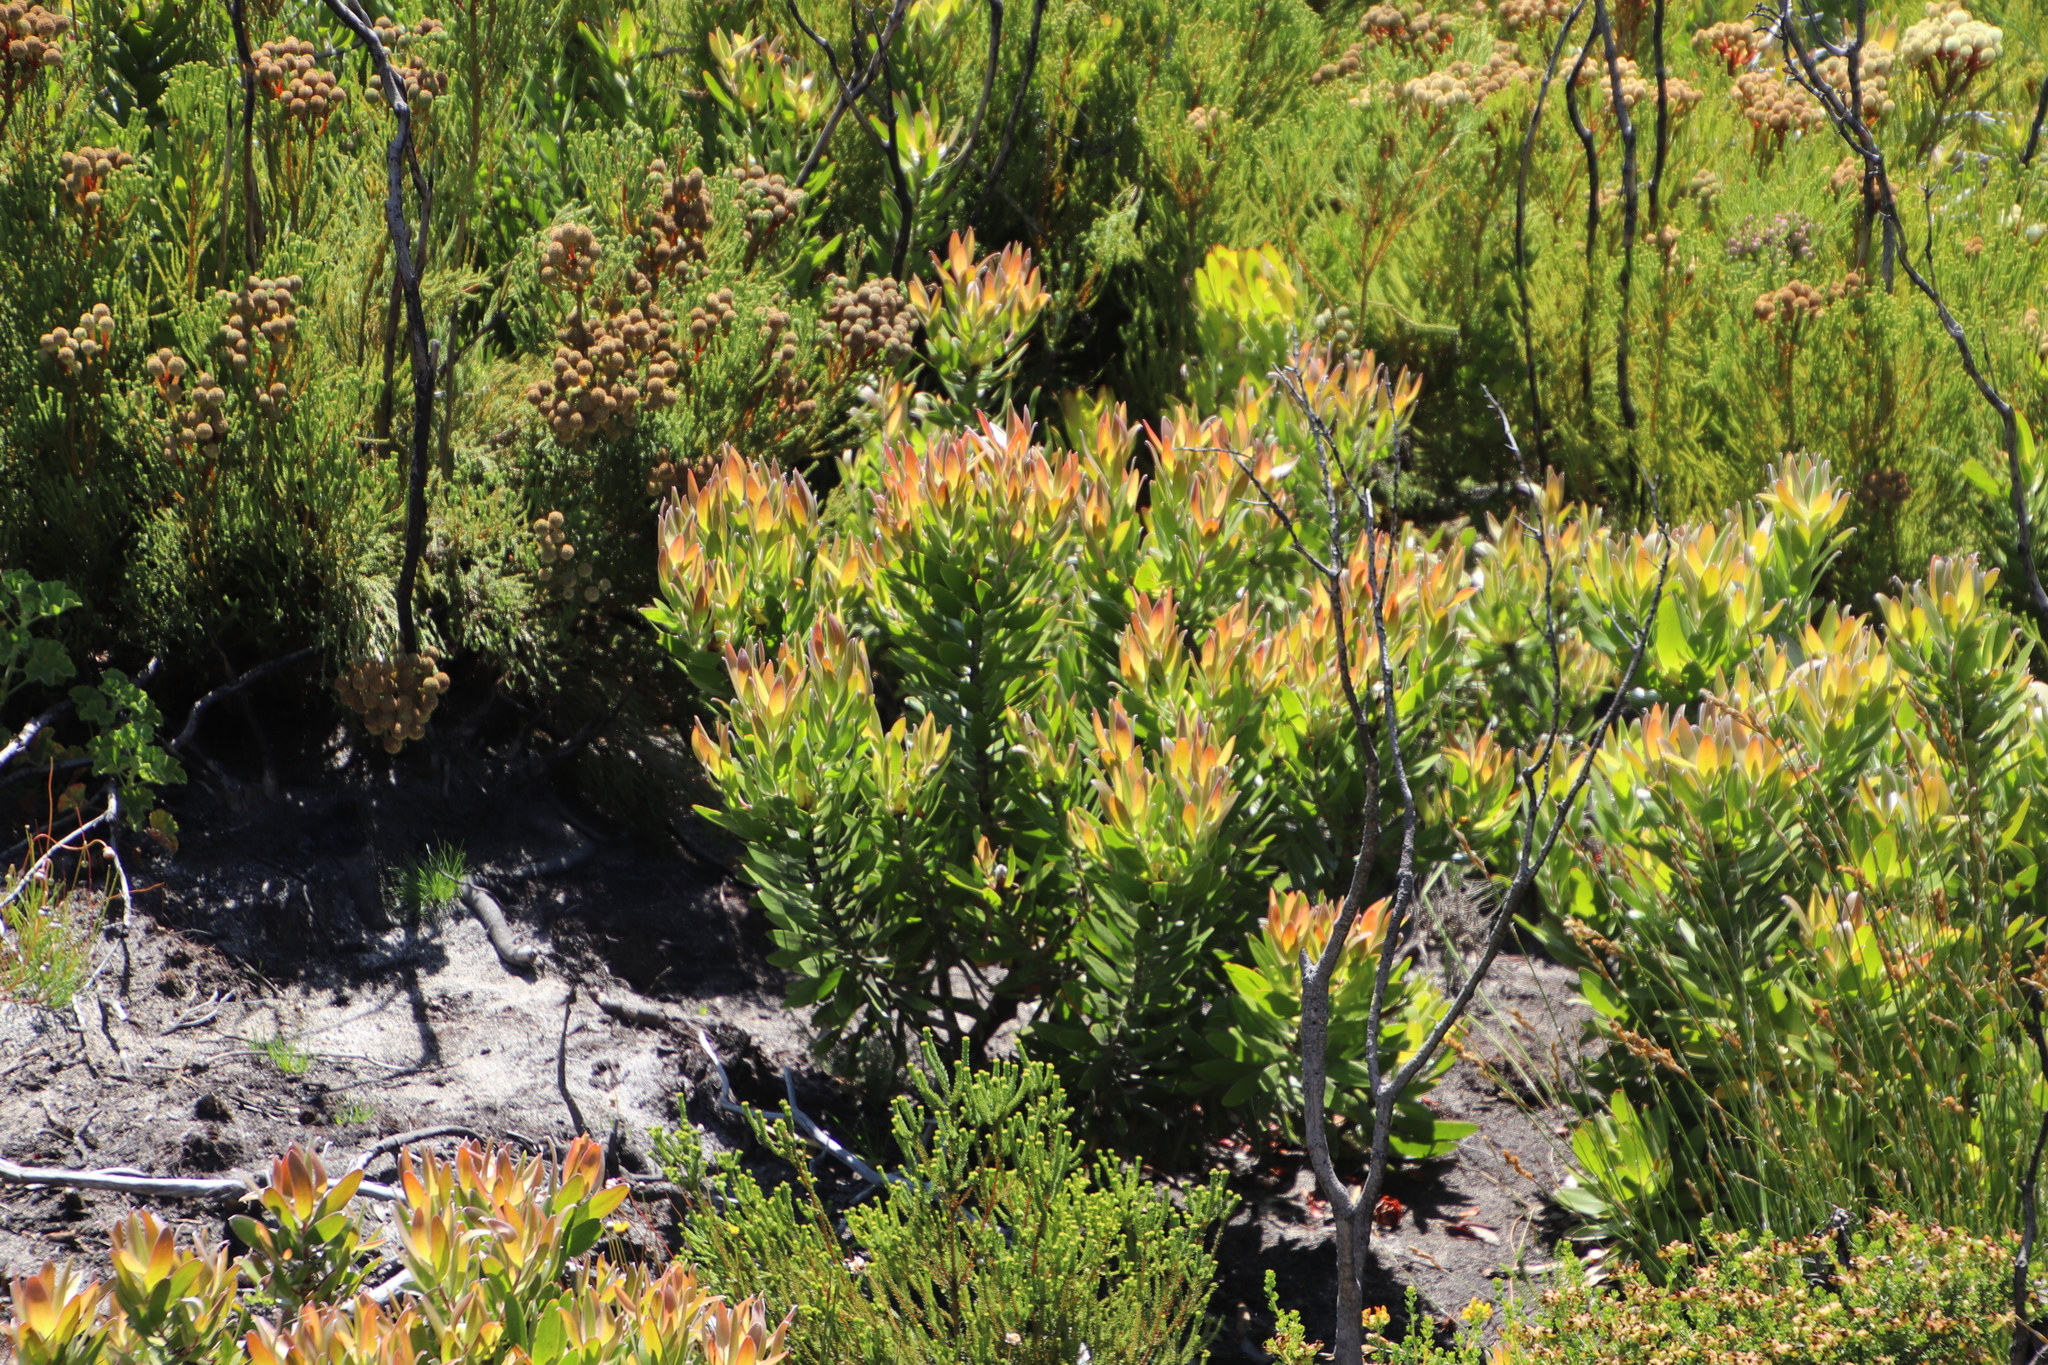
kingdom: Plantae
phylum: Tracheophyta
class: Magnoliopsida
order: Proteales
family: Proteaceae
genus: Mimetes
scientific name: Mimetes hirtus
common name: Marsh pagoda
